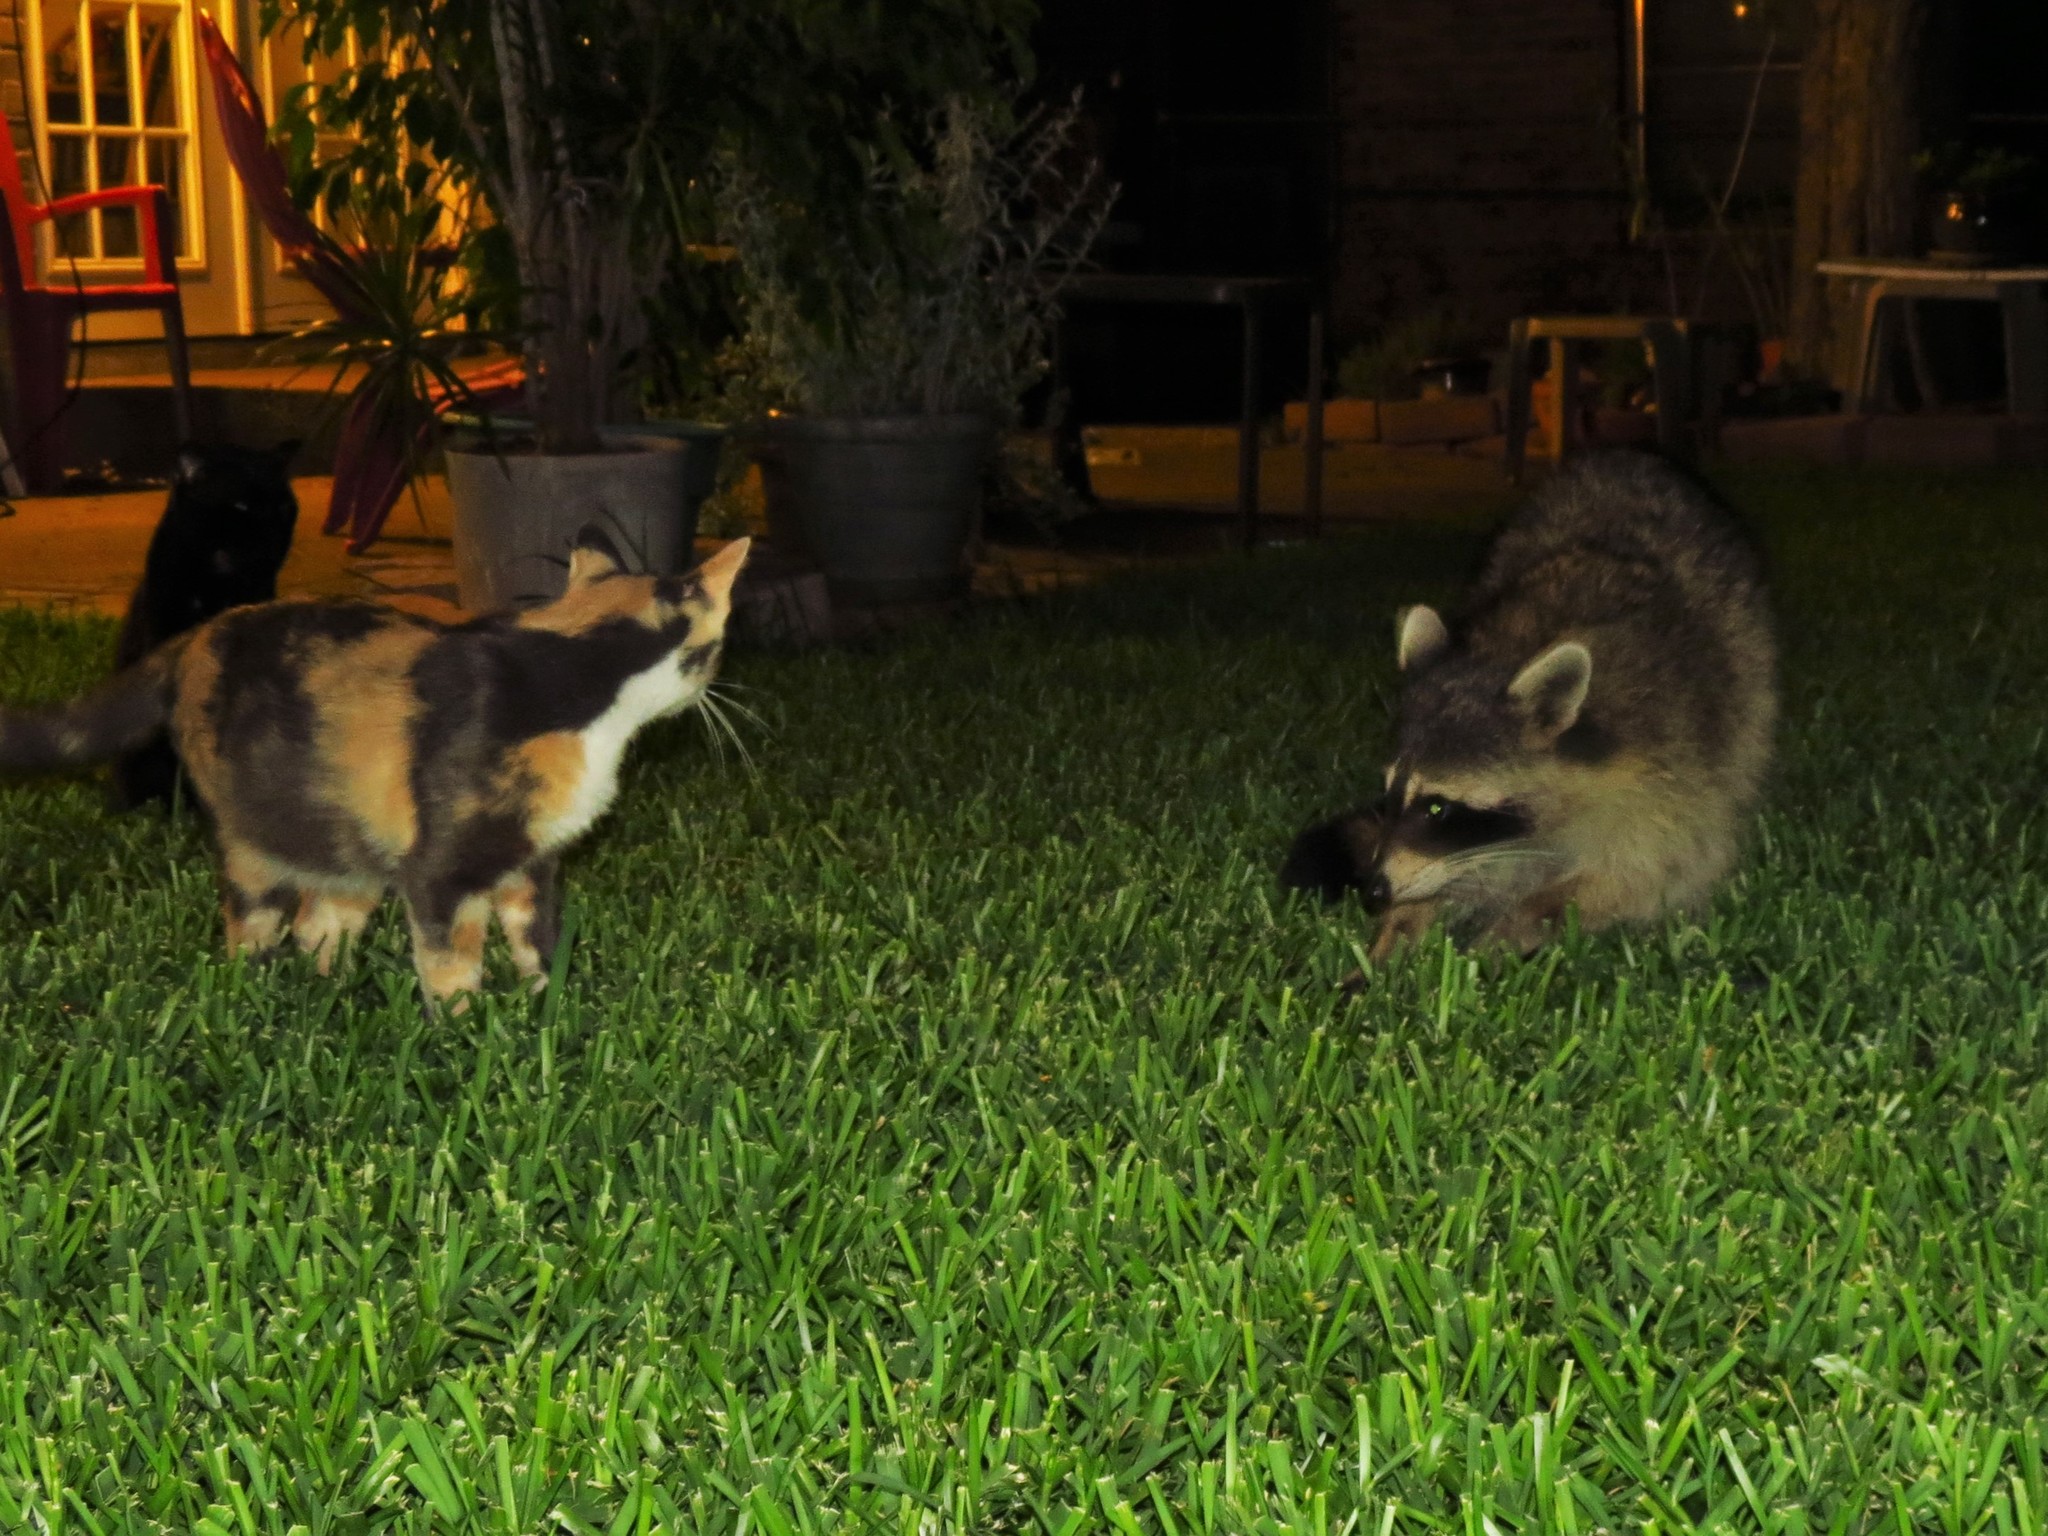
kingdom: Animalia
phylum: Chordata
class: Mammalia
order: Carnivora
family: Procyonidae
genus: Procyon
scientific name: Procyon lotor
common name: Raccoon
